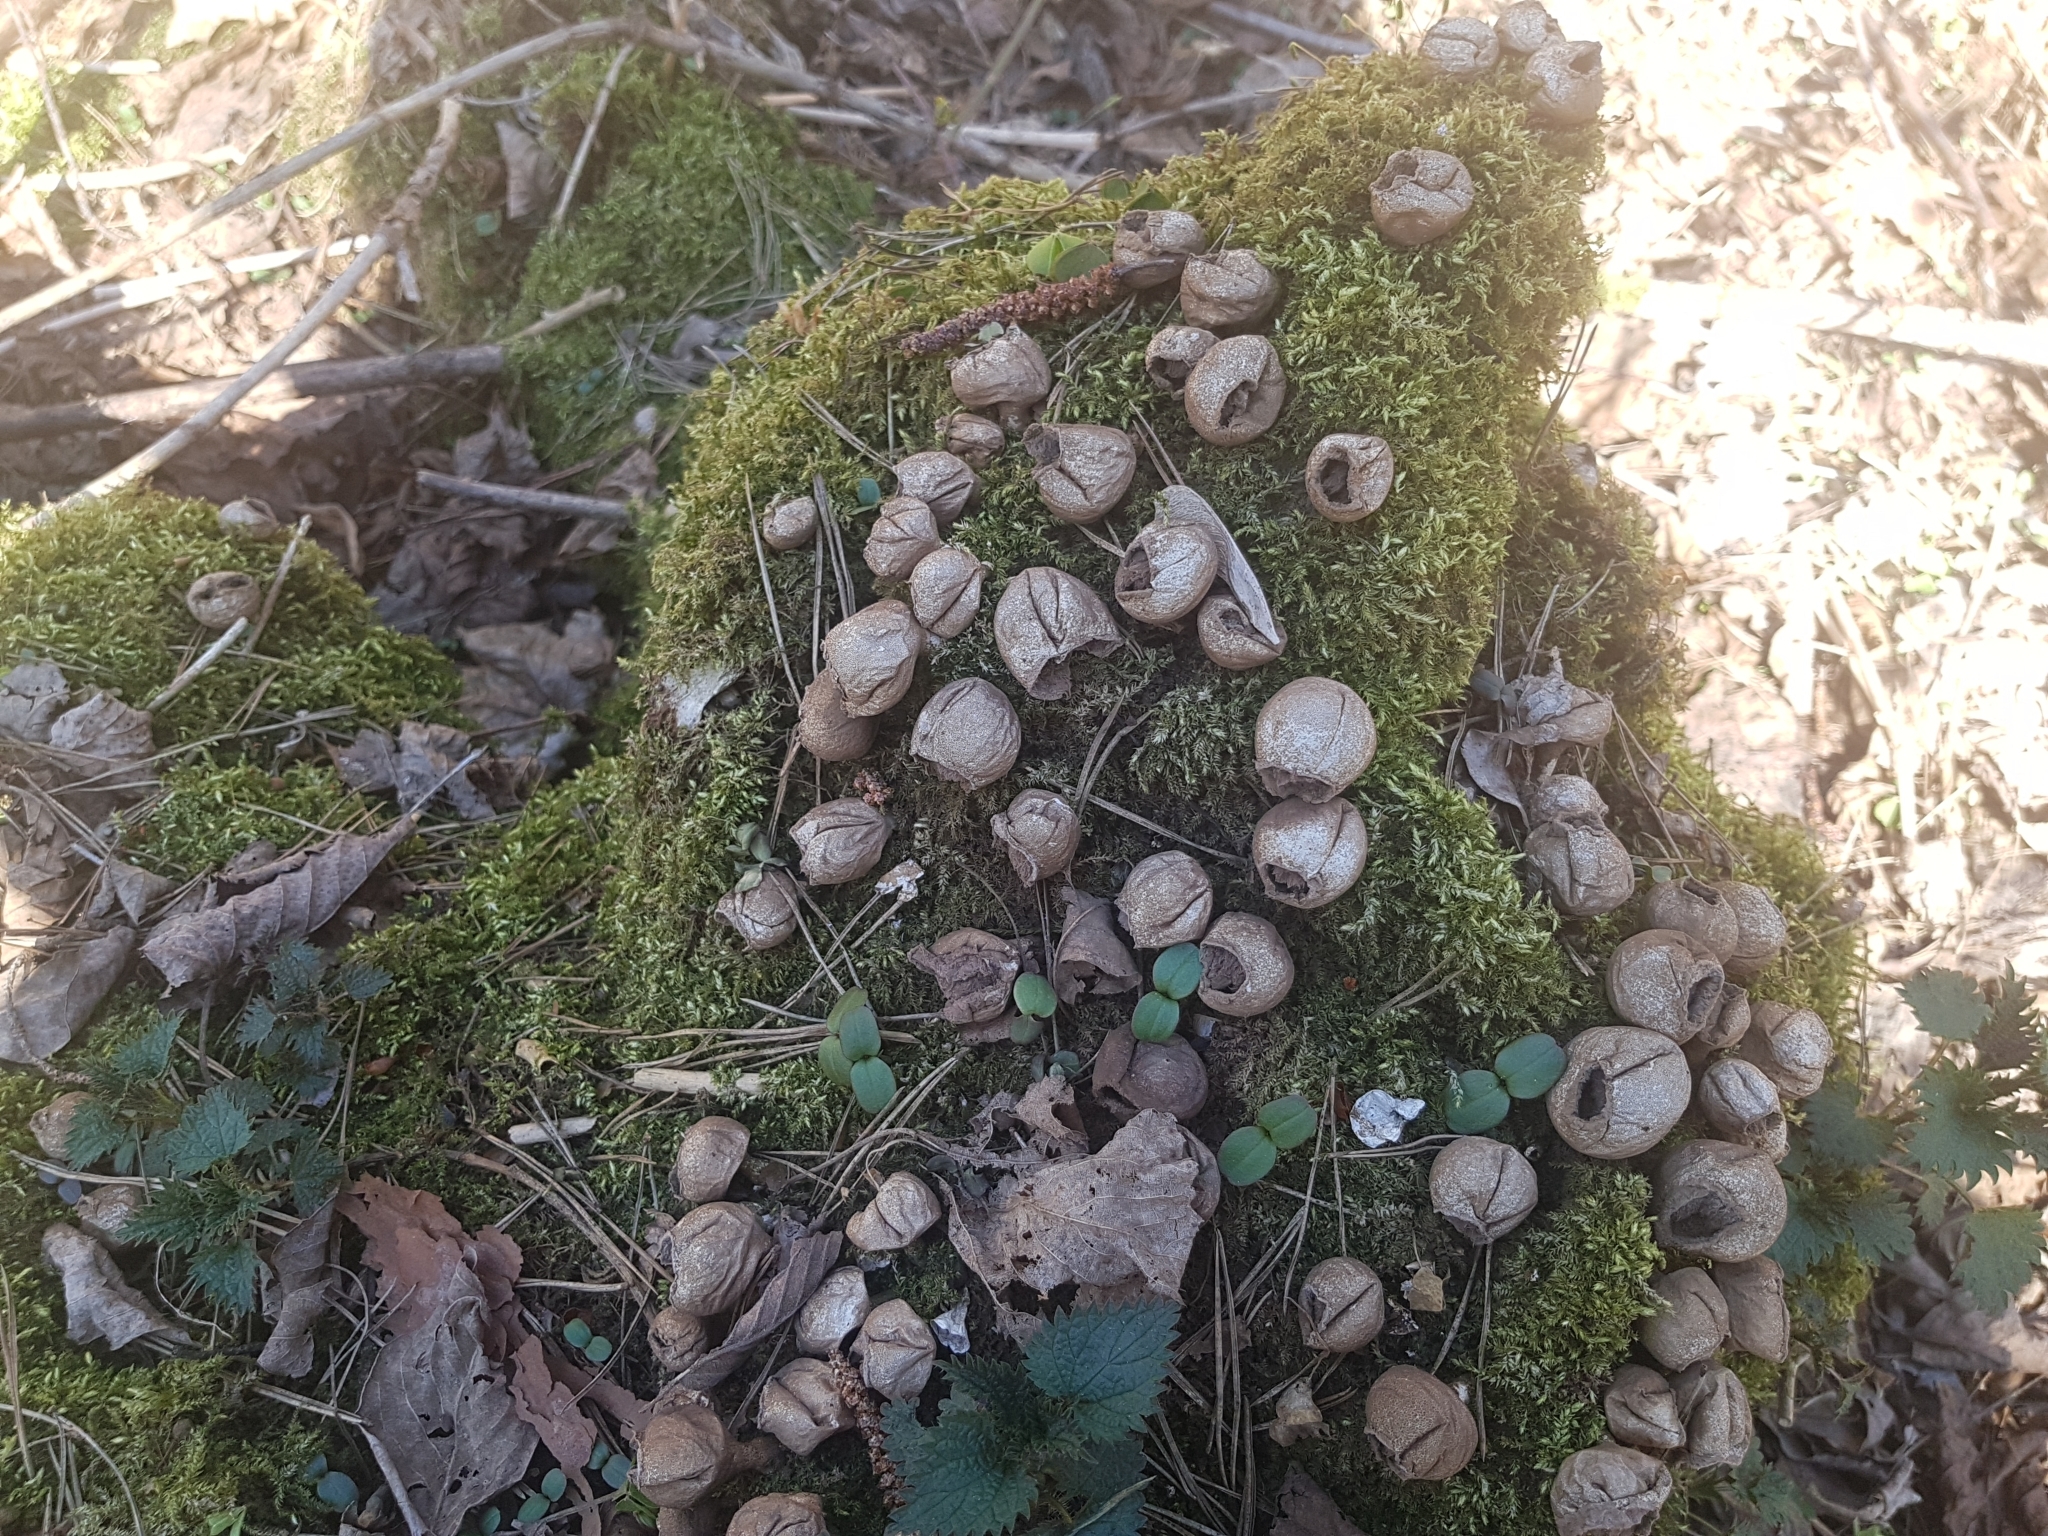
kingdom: Fungi
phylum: Basidiomycota
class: Agaricomycetes
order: Agaricales
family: Lycoperdaceae
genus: Apioperdon
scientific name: Apioperdon pyriforme
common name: Pear-shaped puffball
